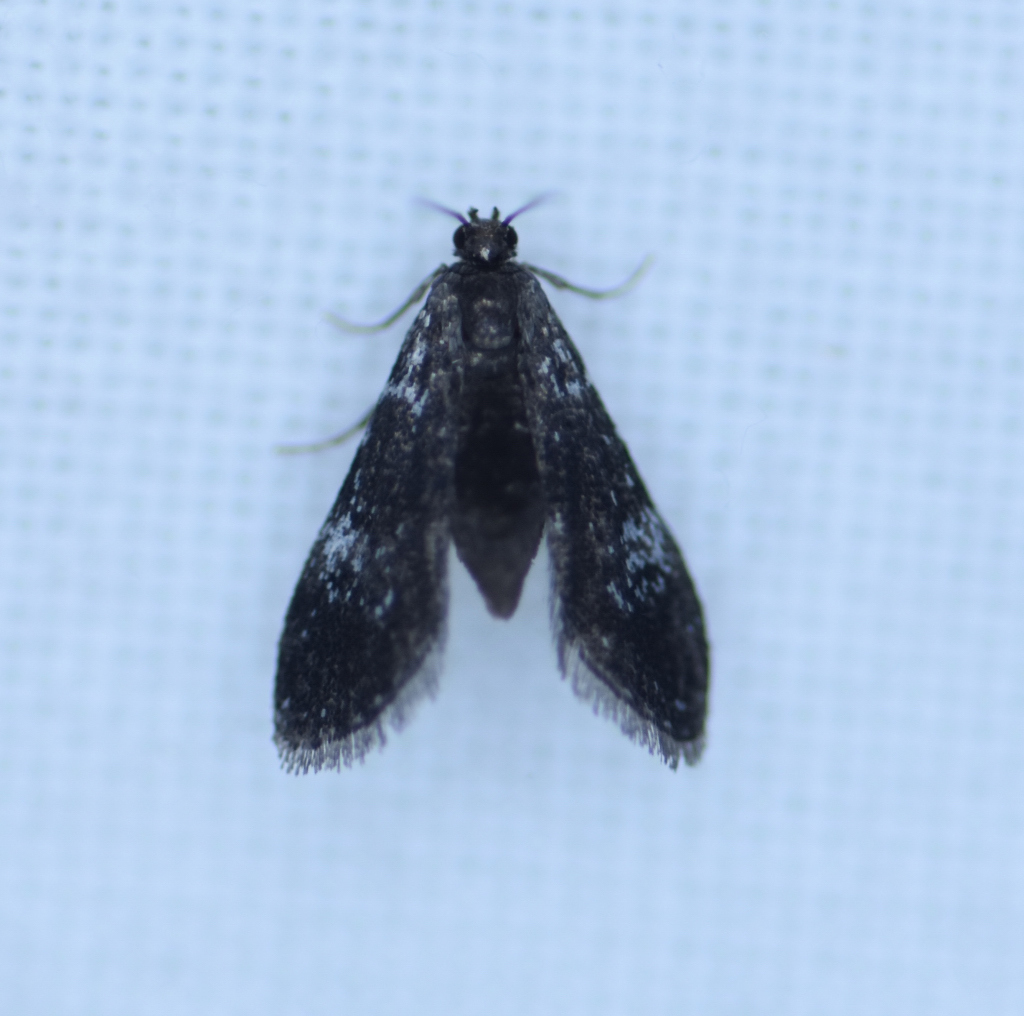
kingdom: Animalia
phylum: Arthropoda
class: Insecta
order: Lepidoptera
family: Crambidae
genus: Elophila
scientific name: Elophila tinealis
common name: Black duckweed moth
